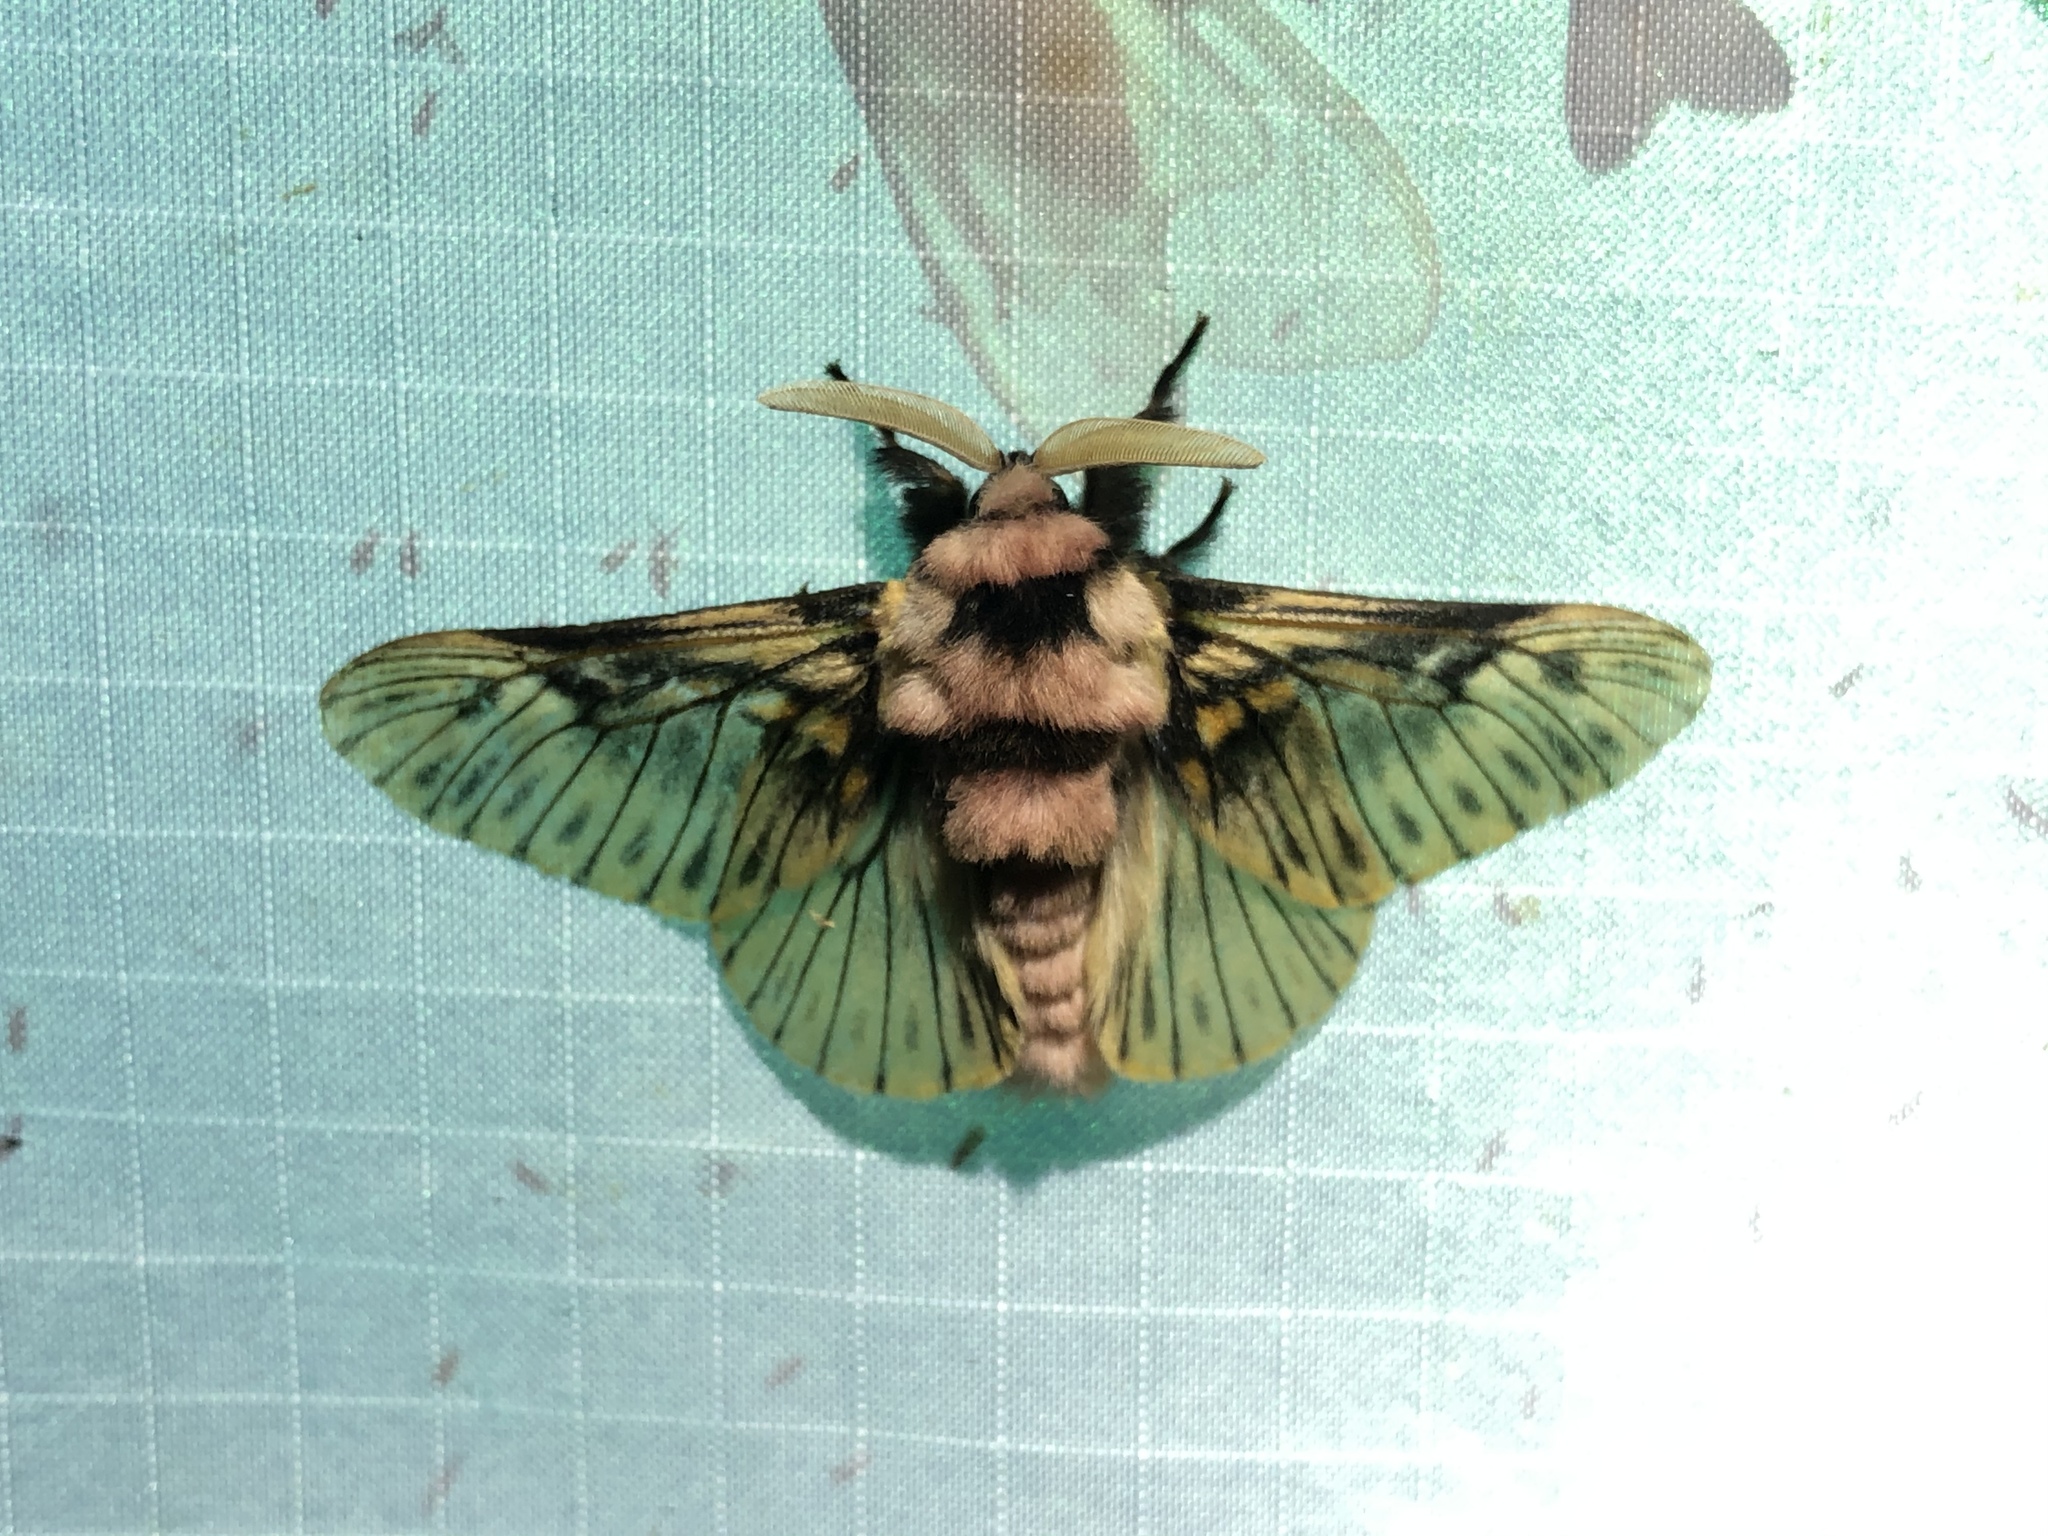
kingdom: Animalia
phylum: Arthropoda
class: Insecta
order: Lepidoptera
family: Megalopygidae
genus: Megalopyge
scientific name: Megalopyge perseae
